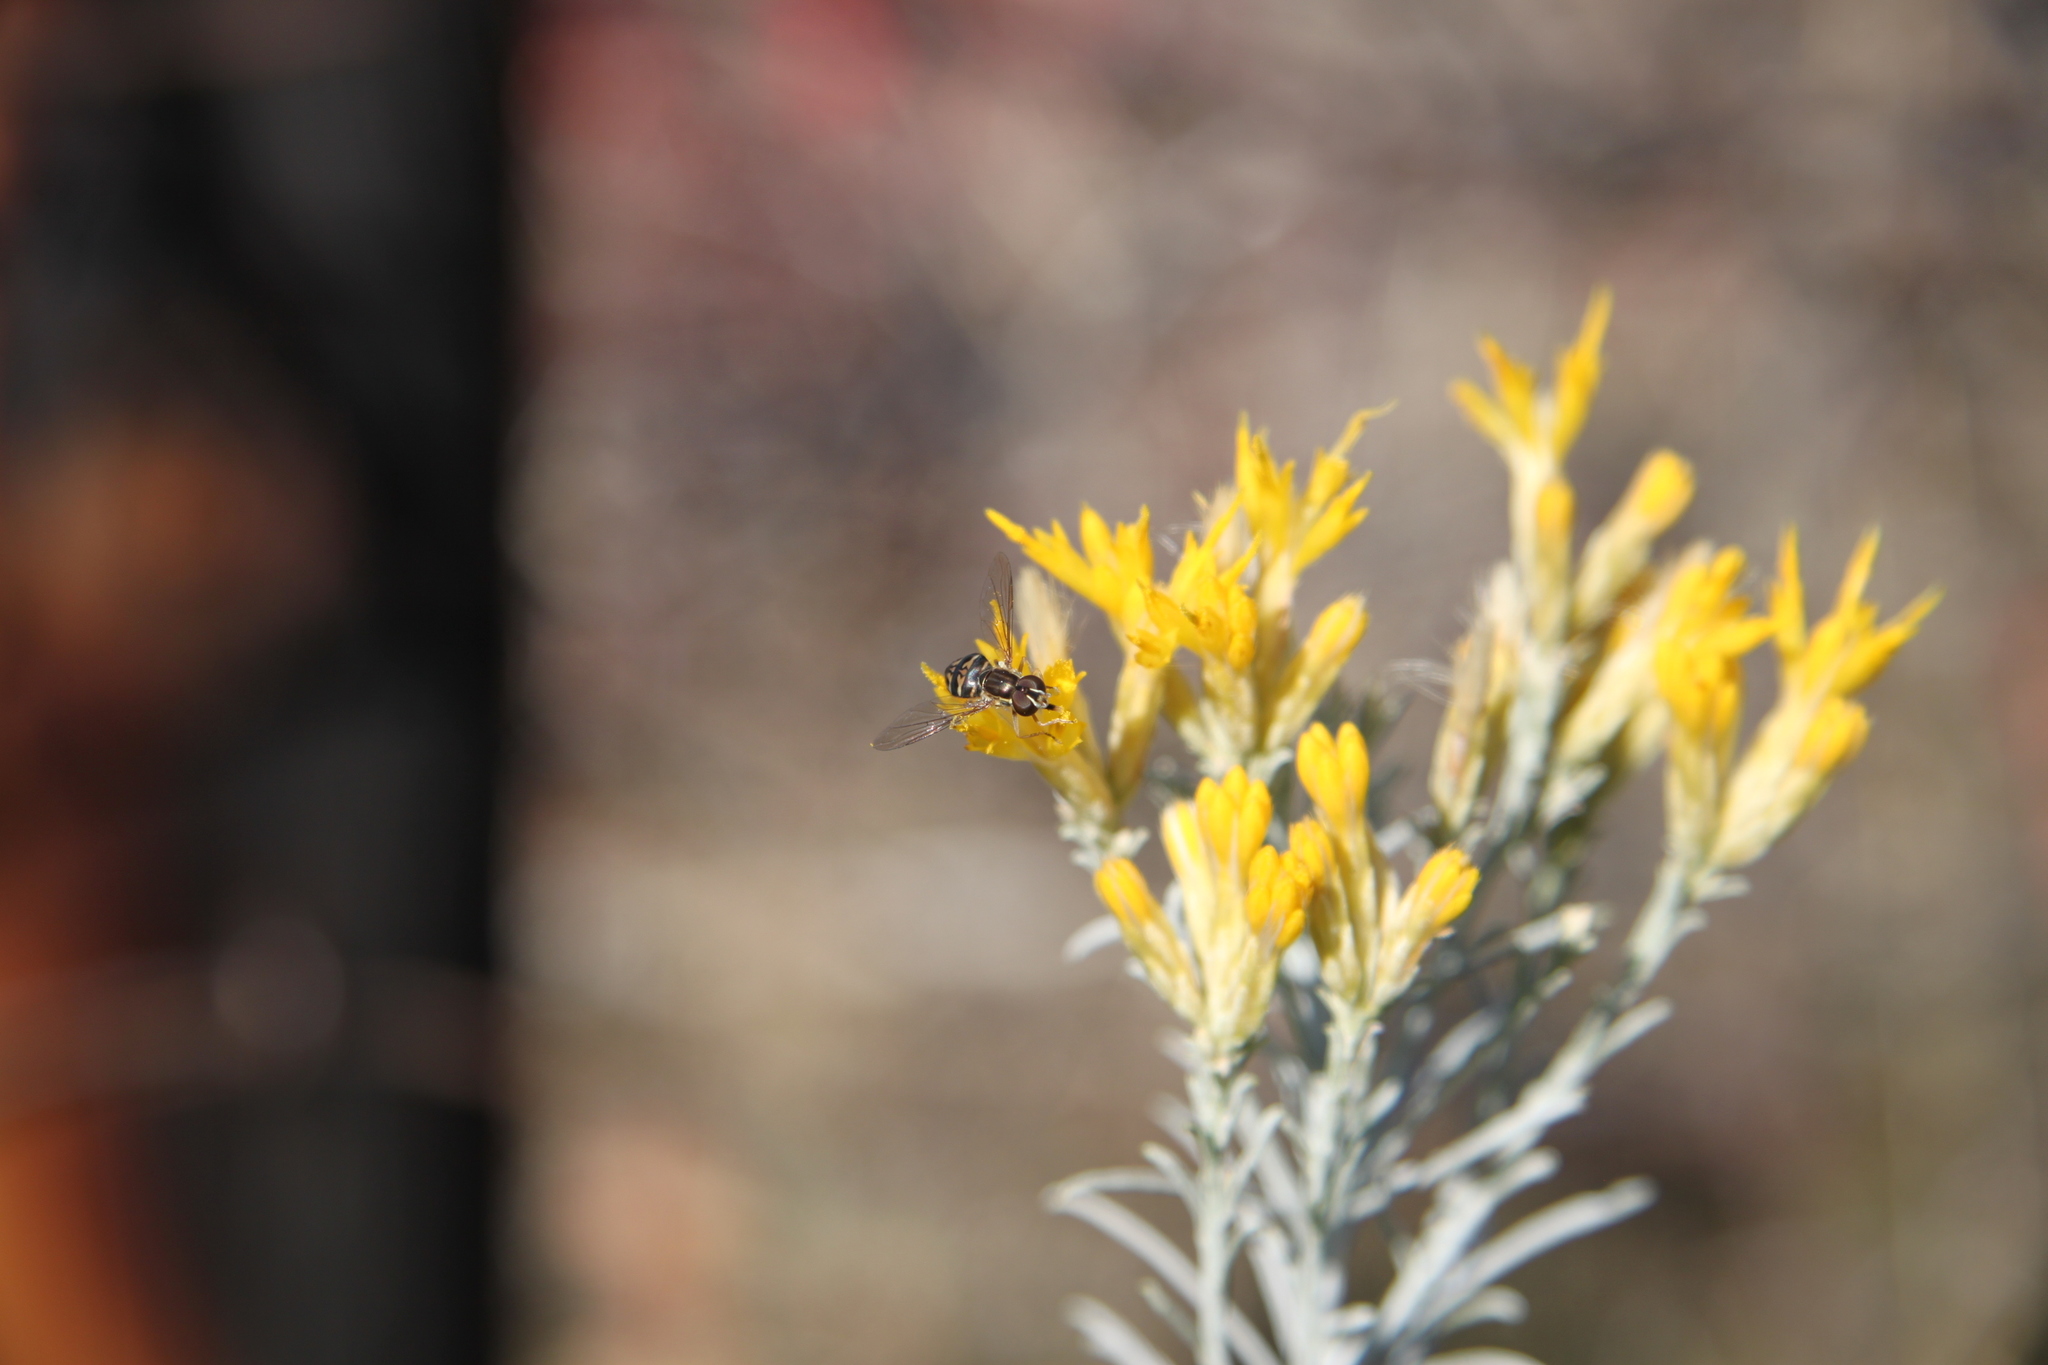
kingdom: Animalia
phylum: Arthropoda
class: Insecta
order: Diptera
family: Syrphidae
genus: Toxomerus
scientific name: Toxomerus occidentalis
